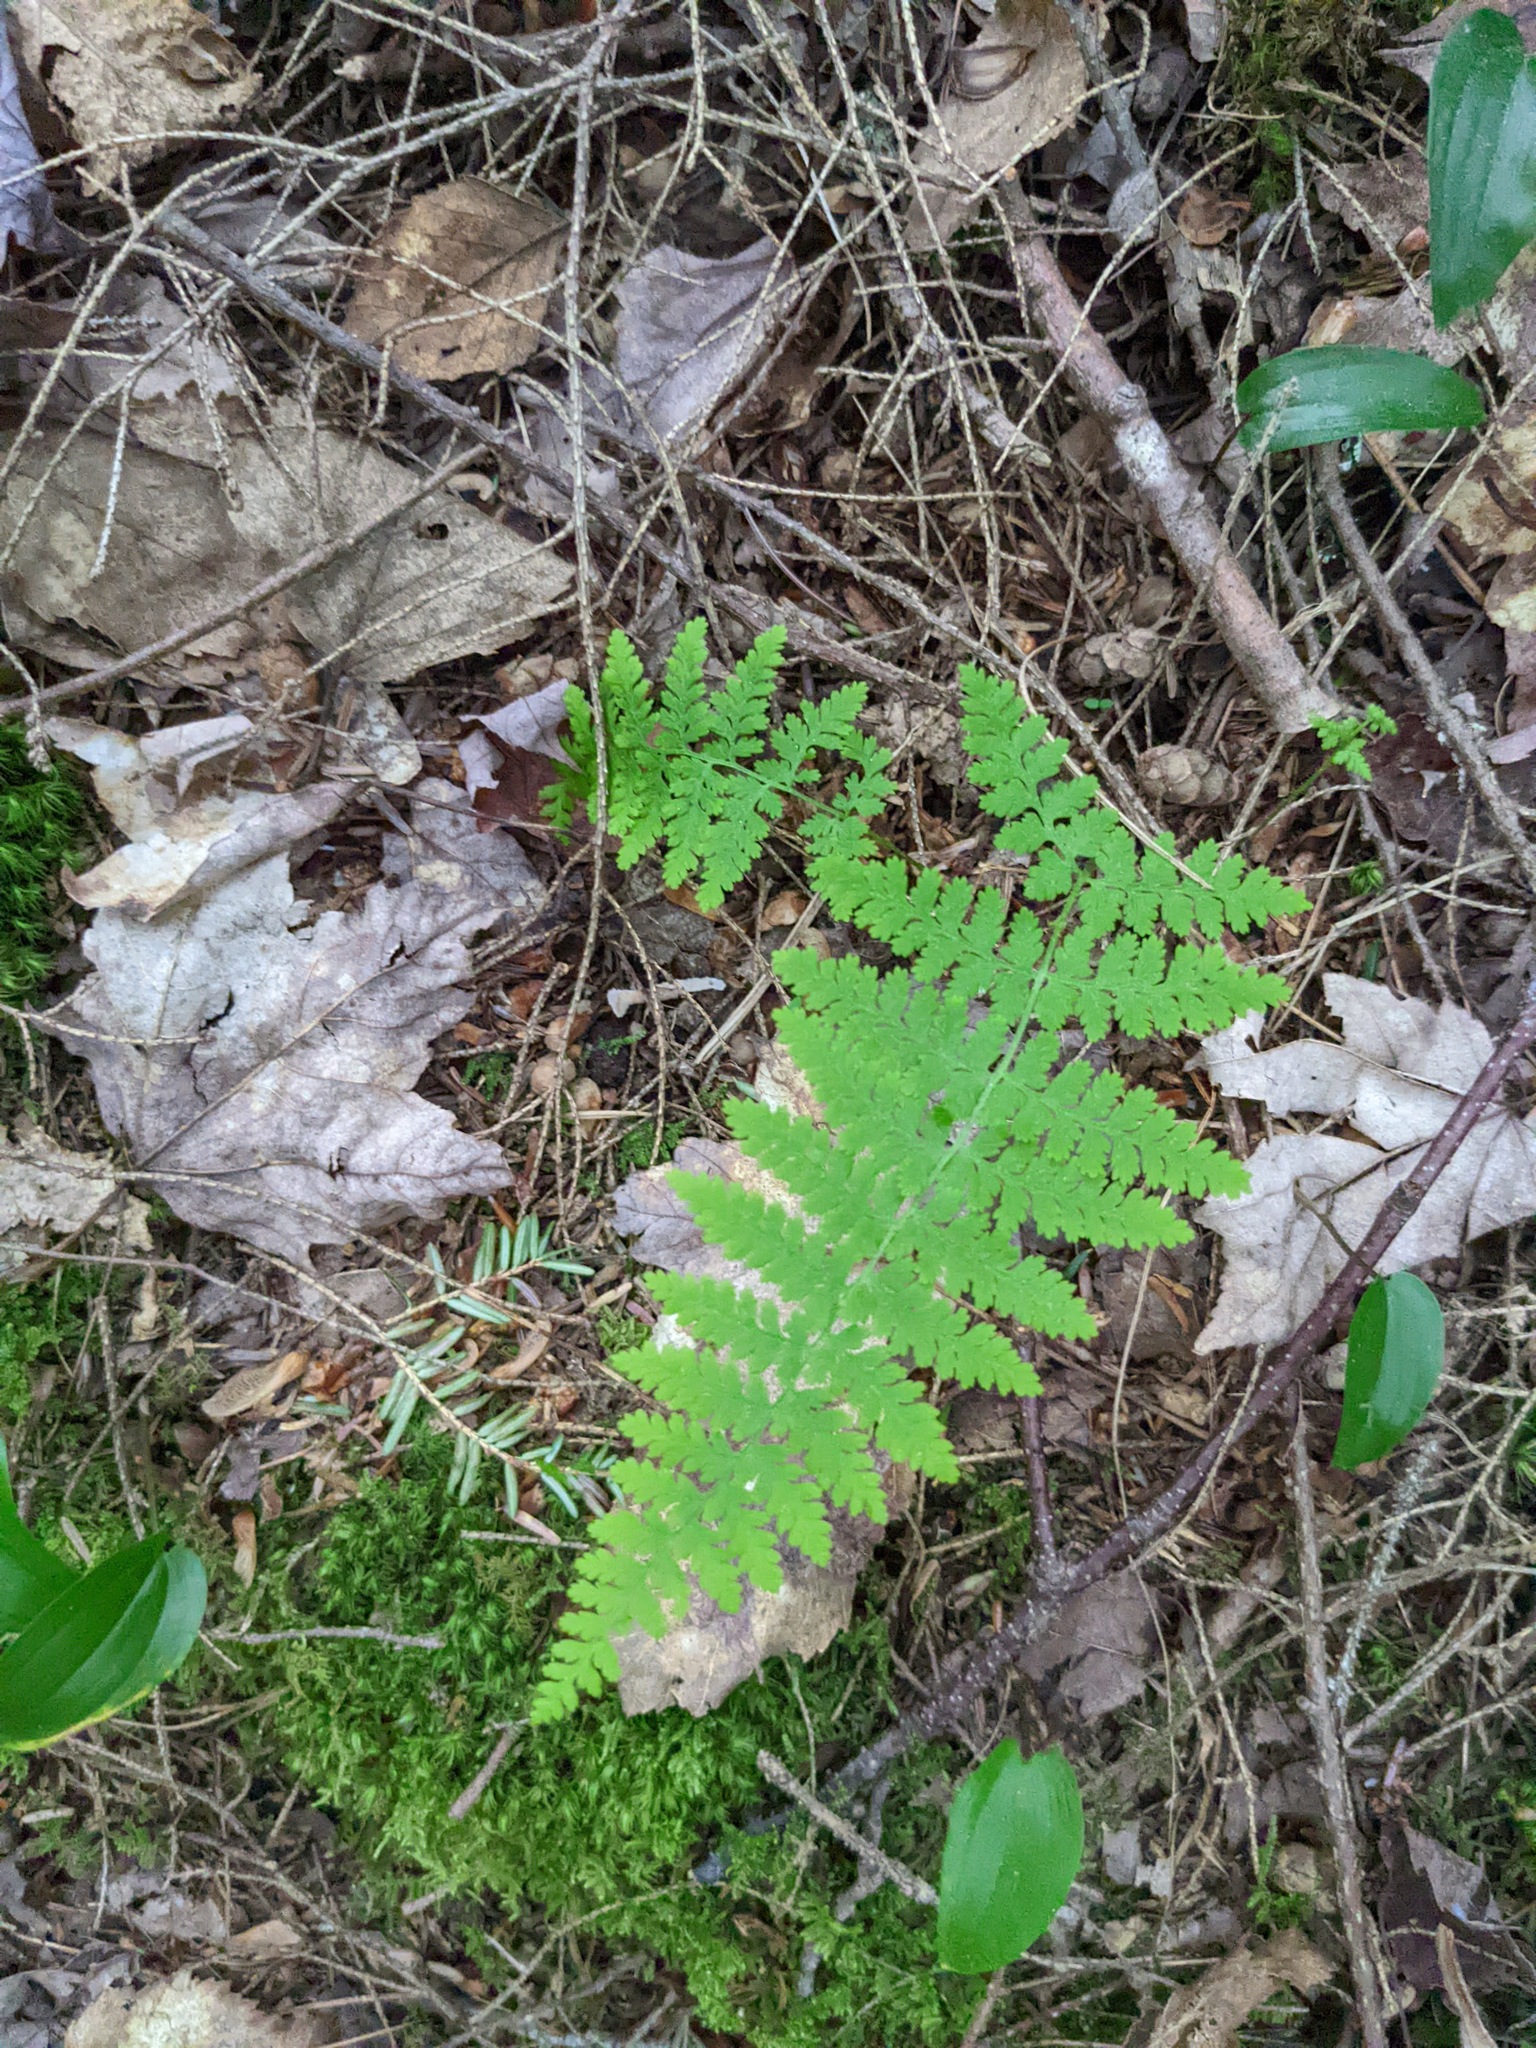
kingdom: Plantae
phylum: Tracheophyta
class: Polypodiopsida
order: Polypodiales
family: Dennstaedtiaceae
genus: Sitobolium
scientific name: Sitobolium punctilobum
